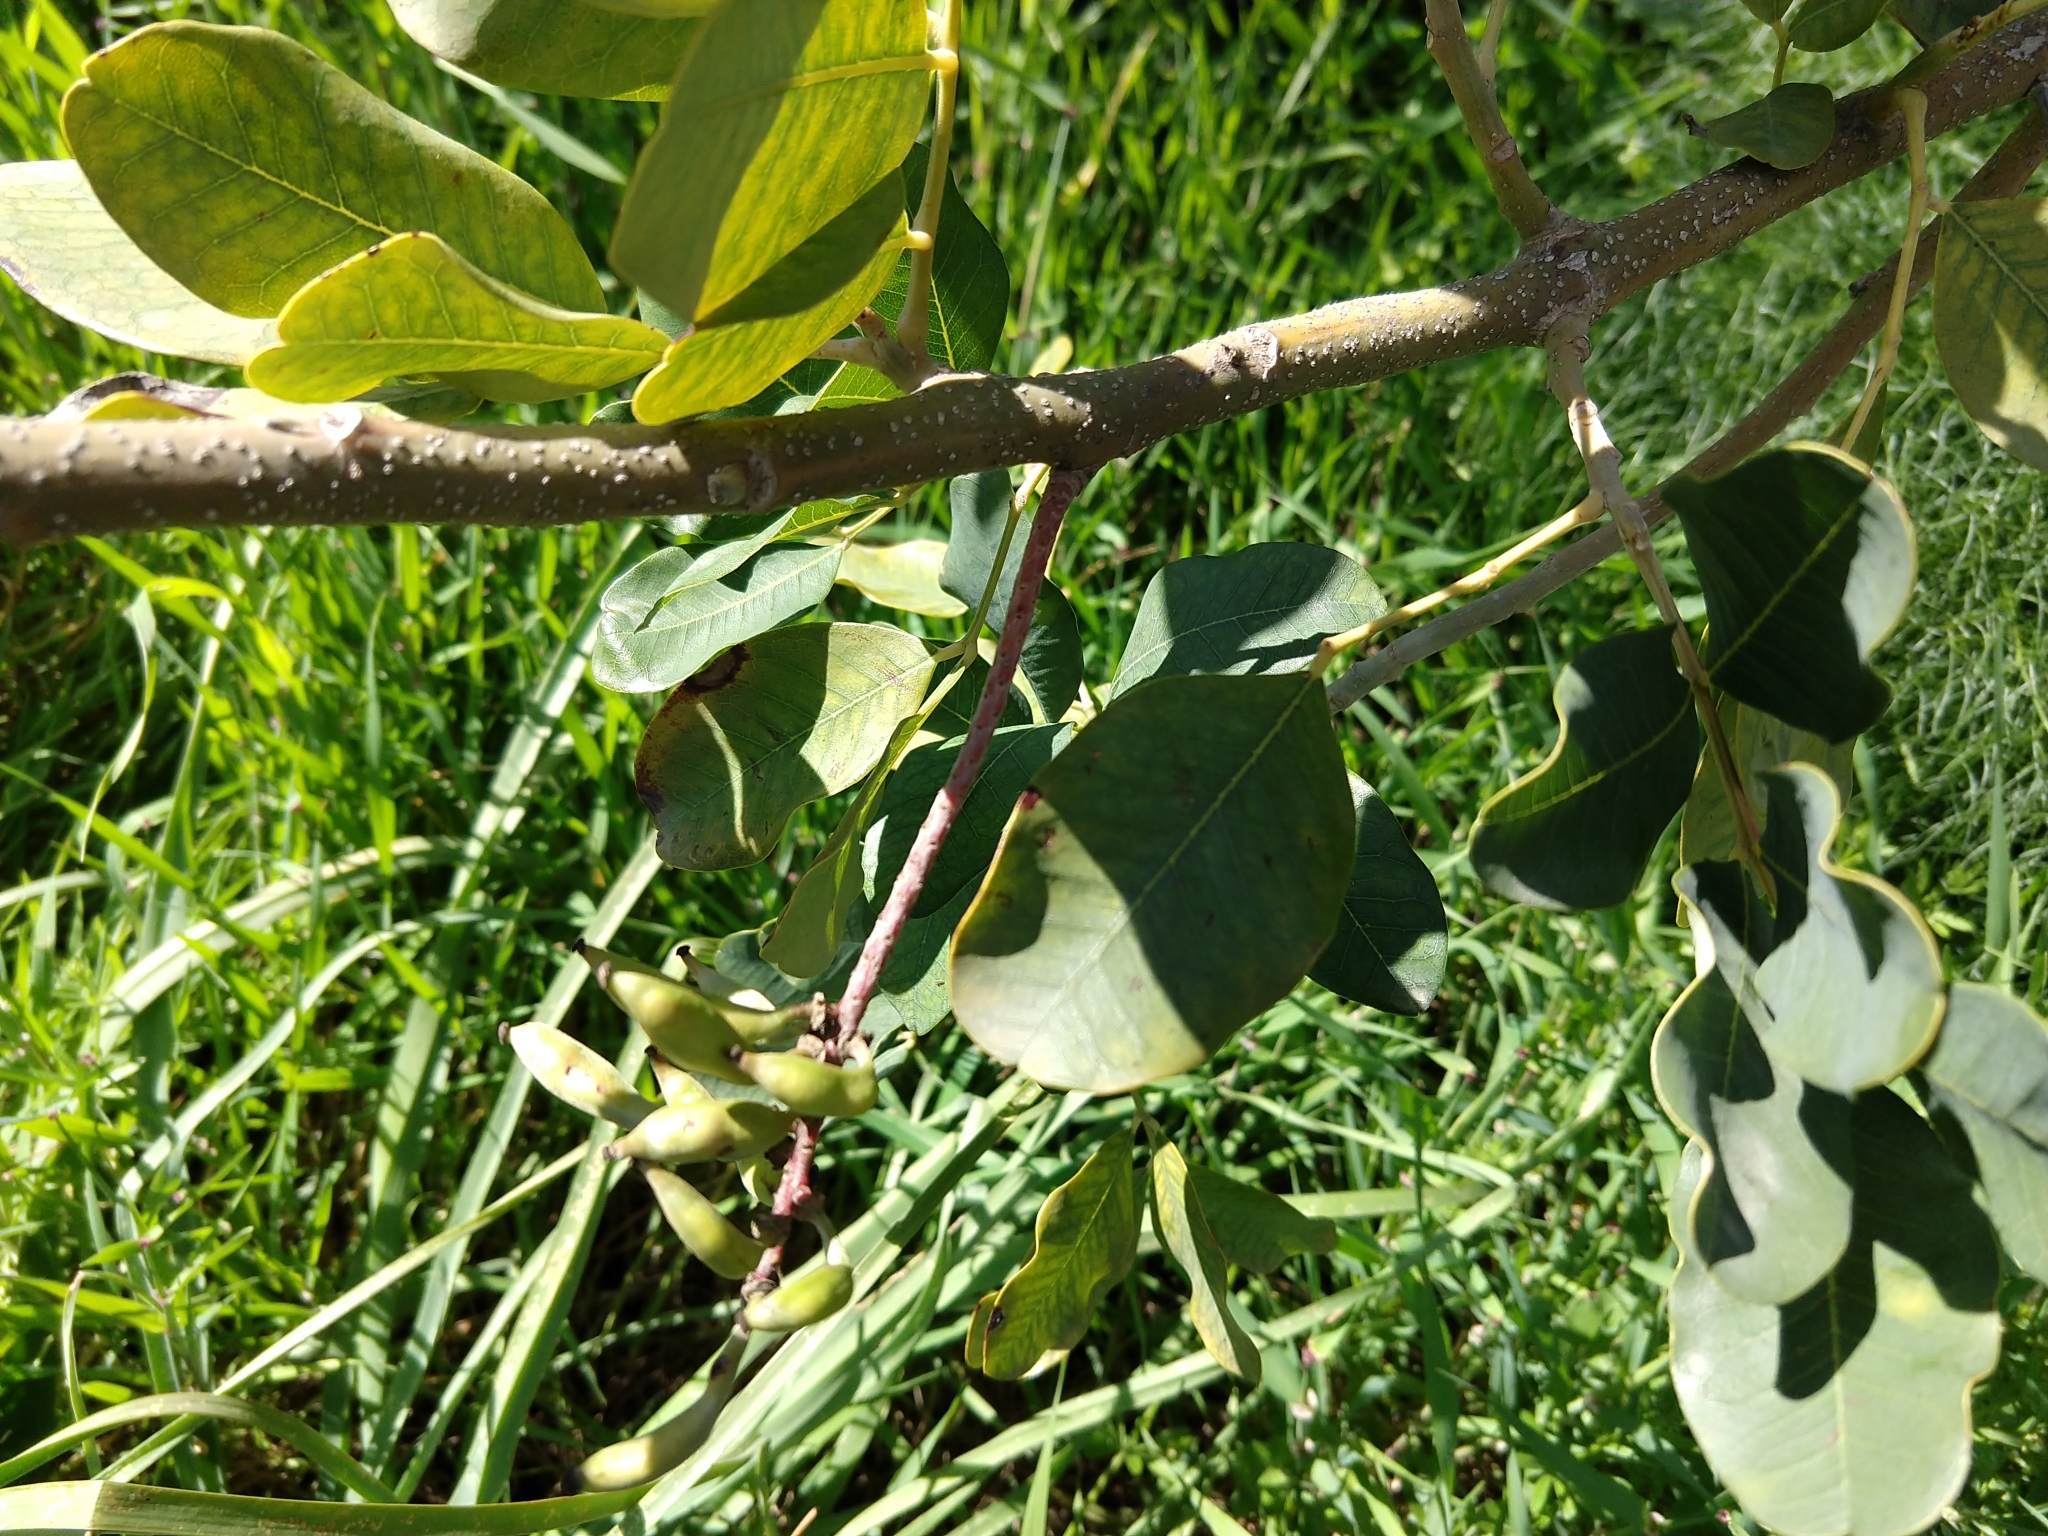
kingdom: Plantae
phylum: Tracheophyta
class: Magnoliopsida
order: Fabales
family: Fabaceae
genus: Ceratonia
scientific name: Ceratonia siliqua
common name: Carob
